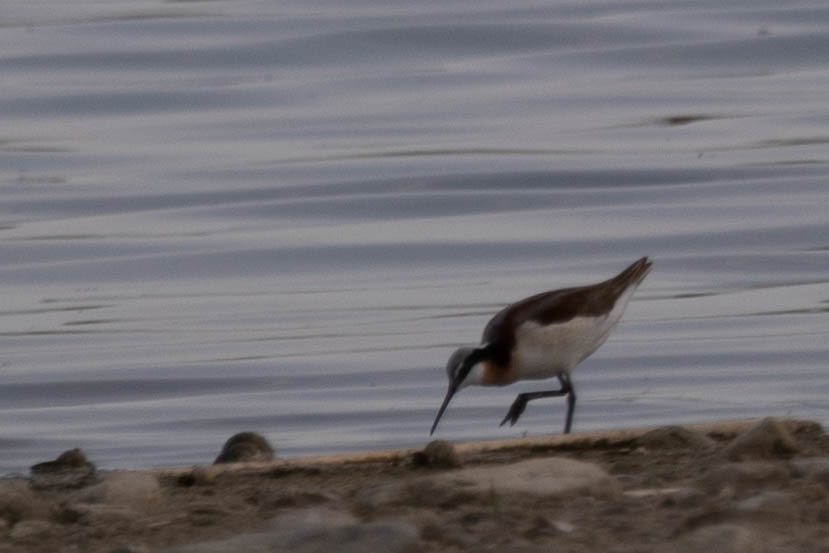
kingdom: Animalia
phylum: Chordata
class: Aves
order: Charadriiformes
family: Scolopacidae
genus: Phalaropus
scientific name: Phalaropus tricolor
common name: Wilson's phalarope
